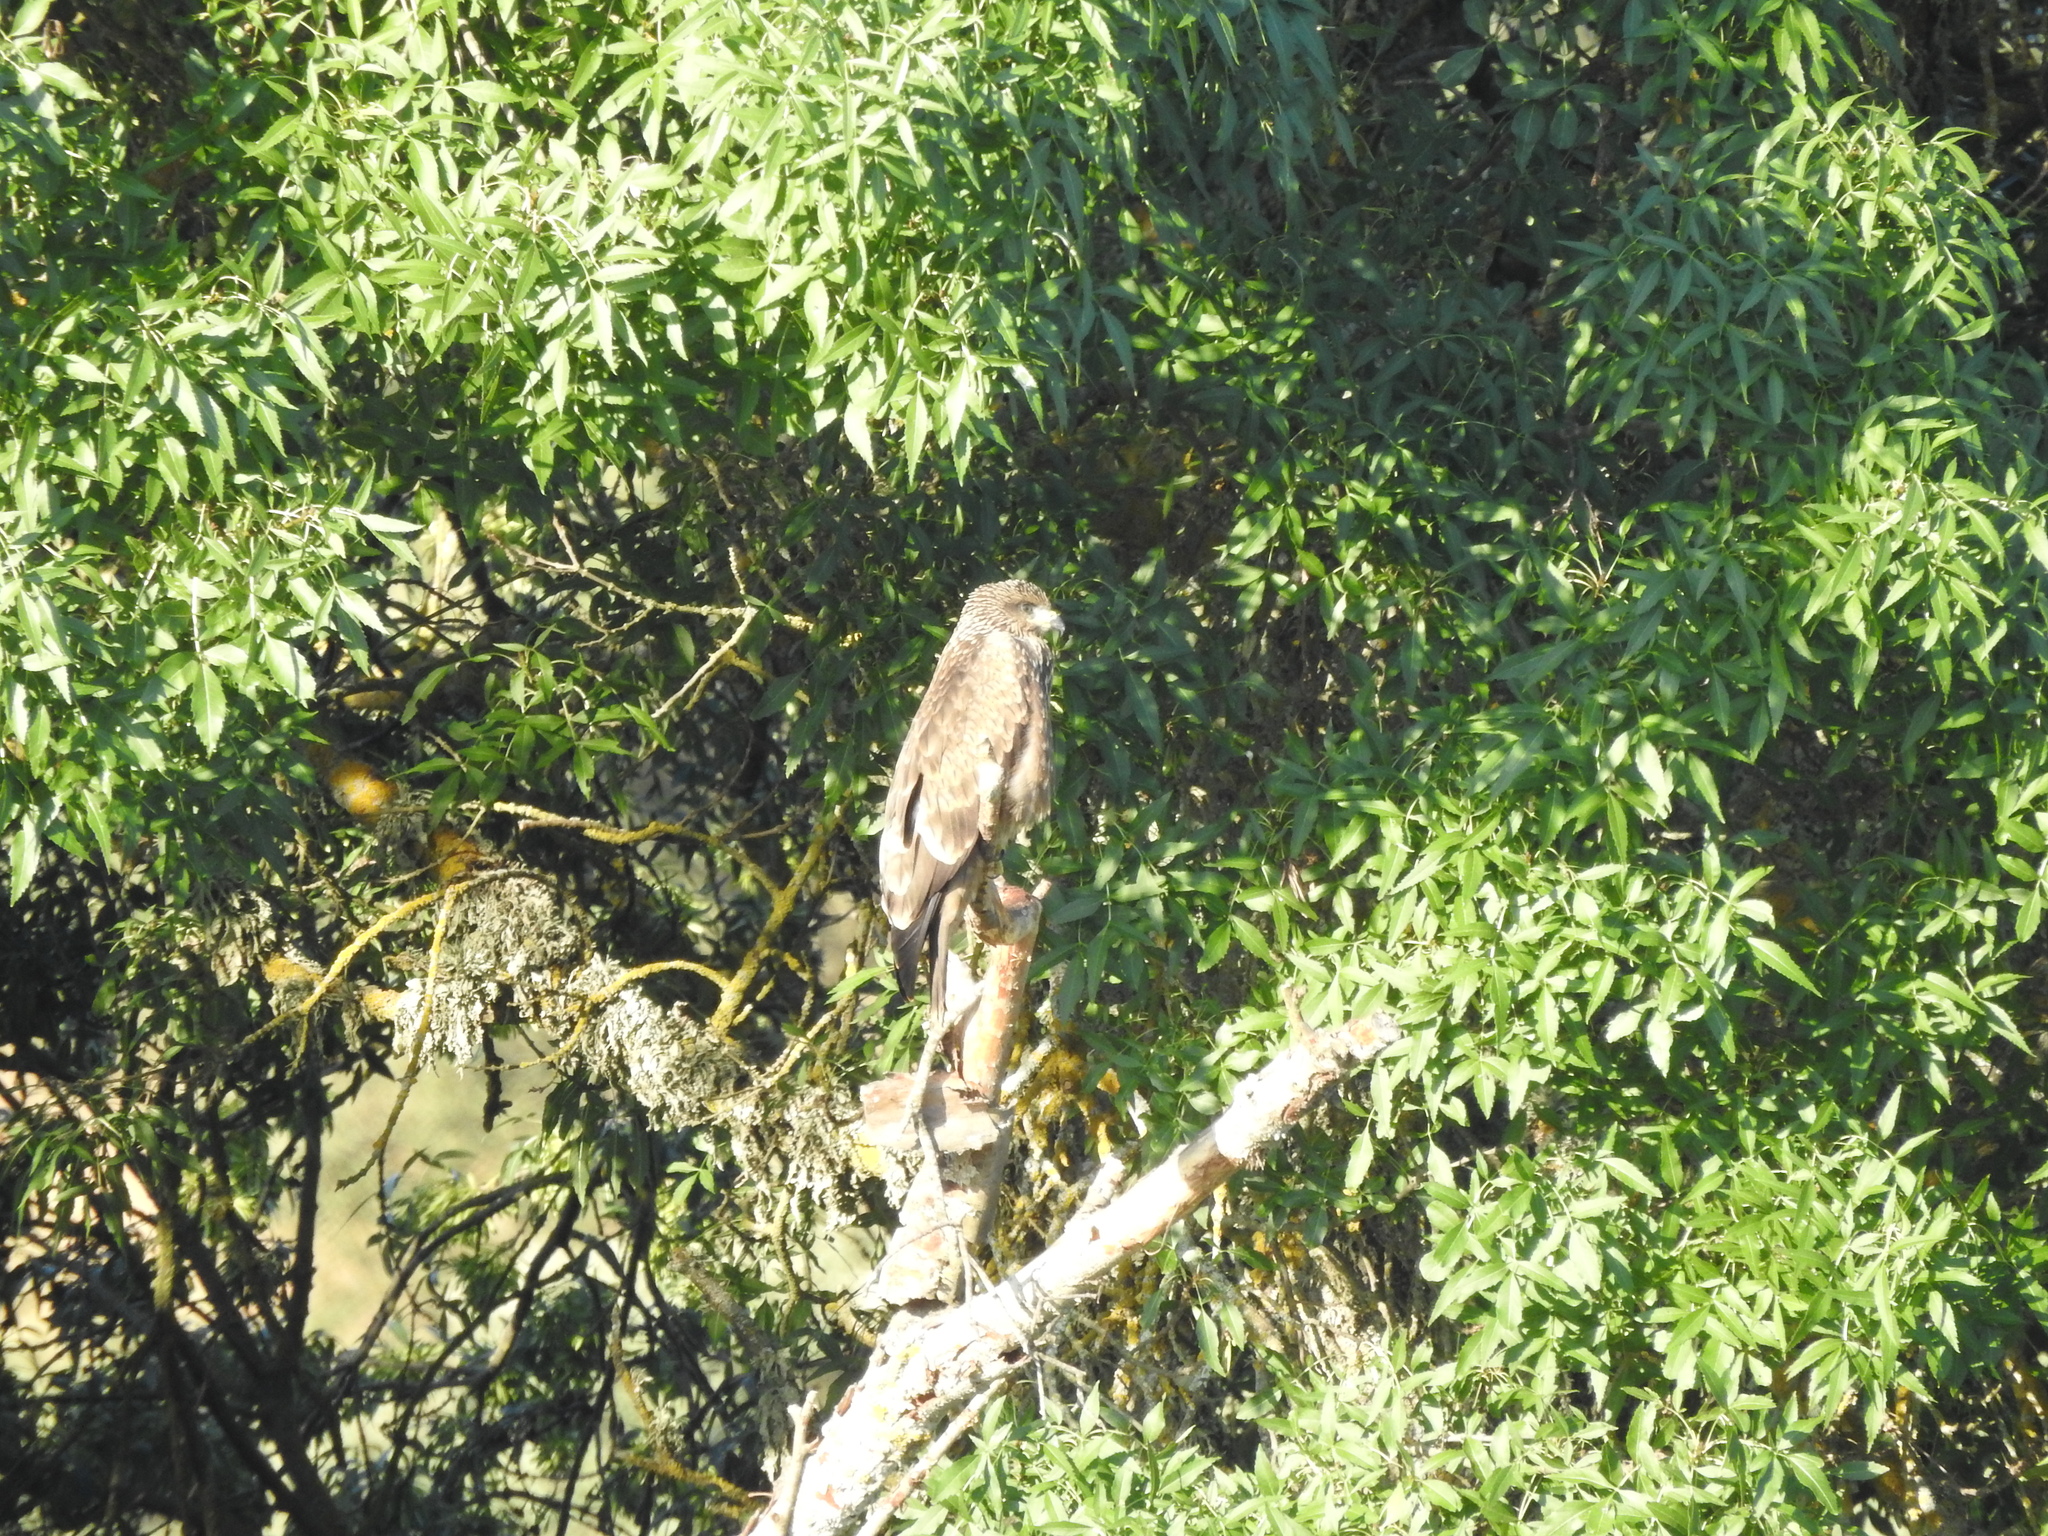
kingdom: Animalia
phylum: Chordata
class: Aves
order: Accipitriformes
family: Accipitridae
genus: Buteo
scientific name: Buteo buteo
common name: Common buzzard
